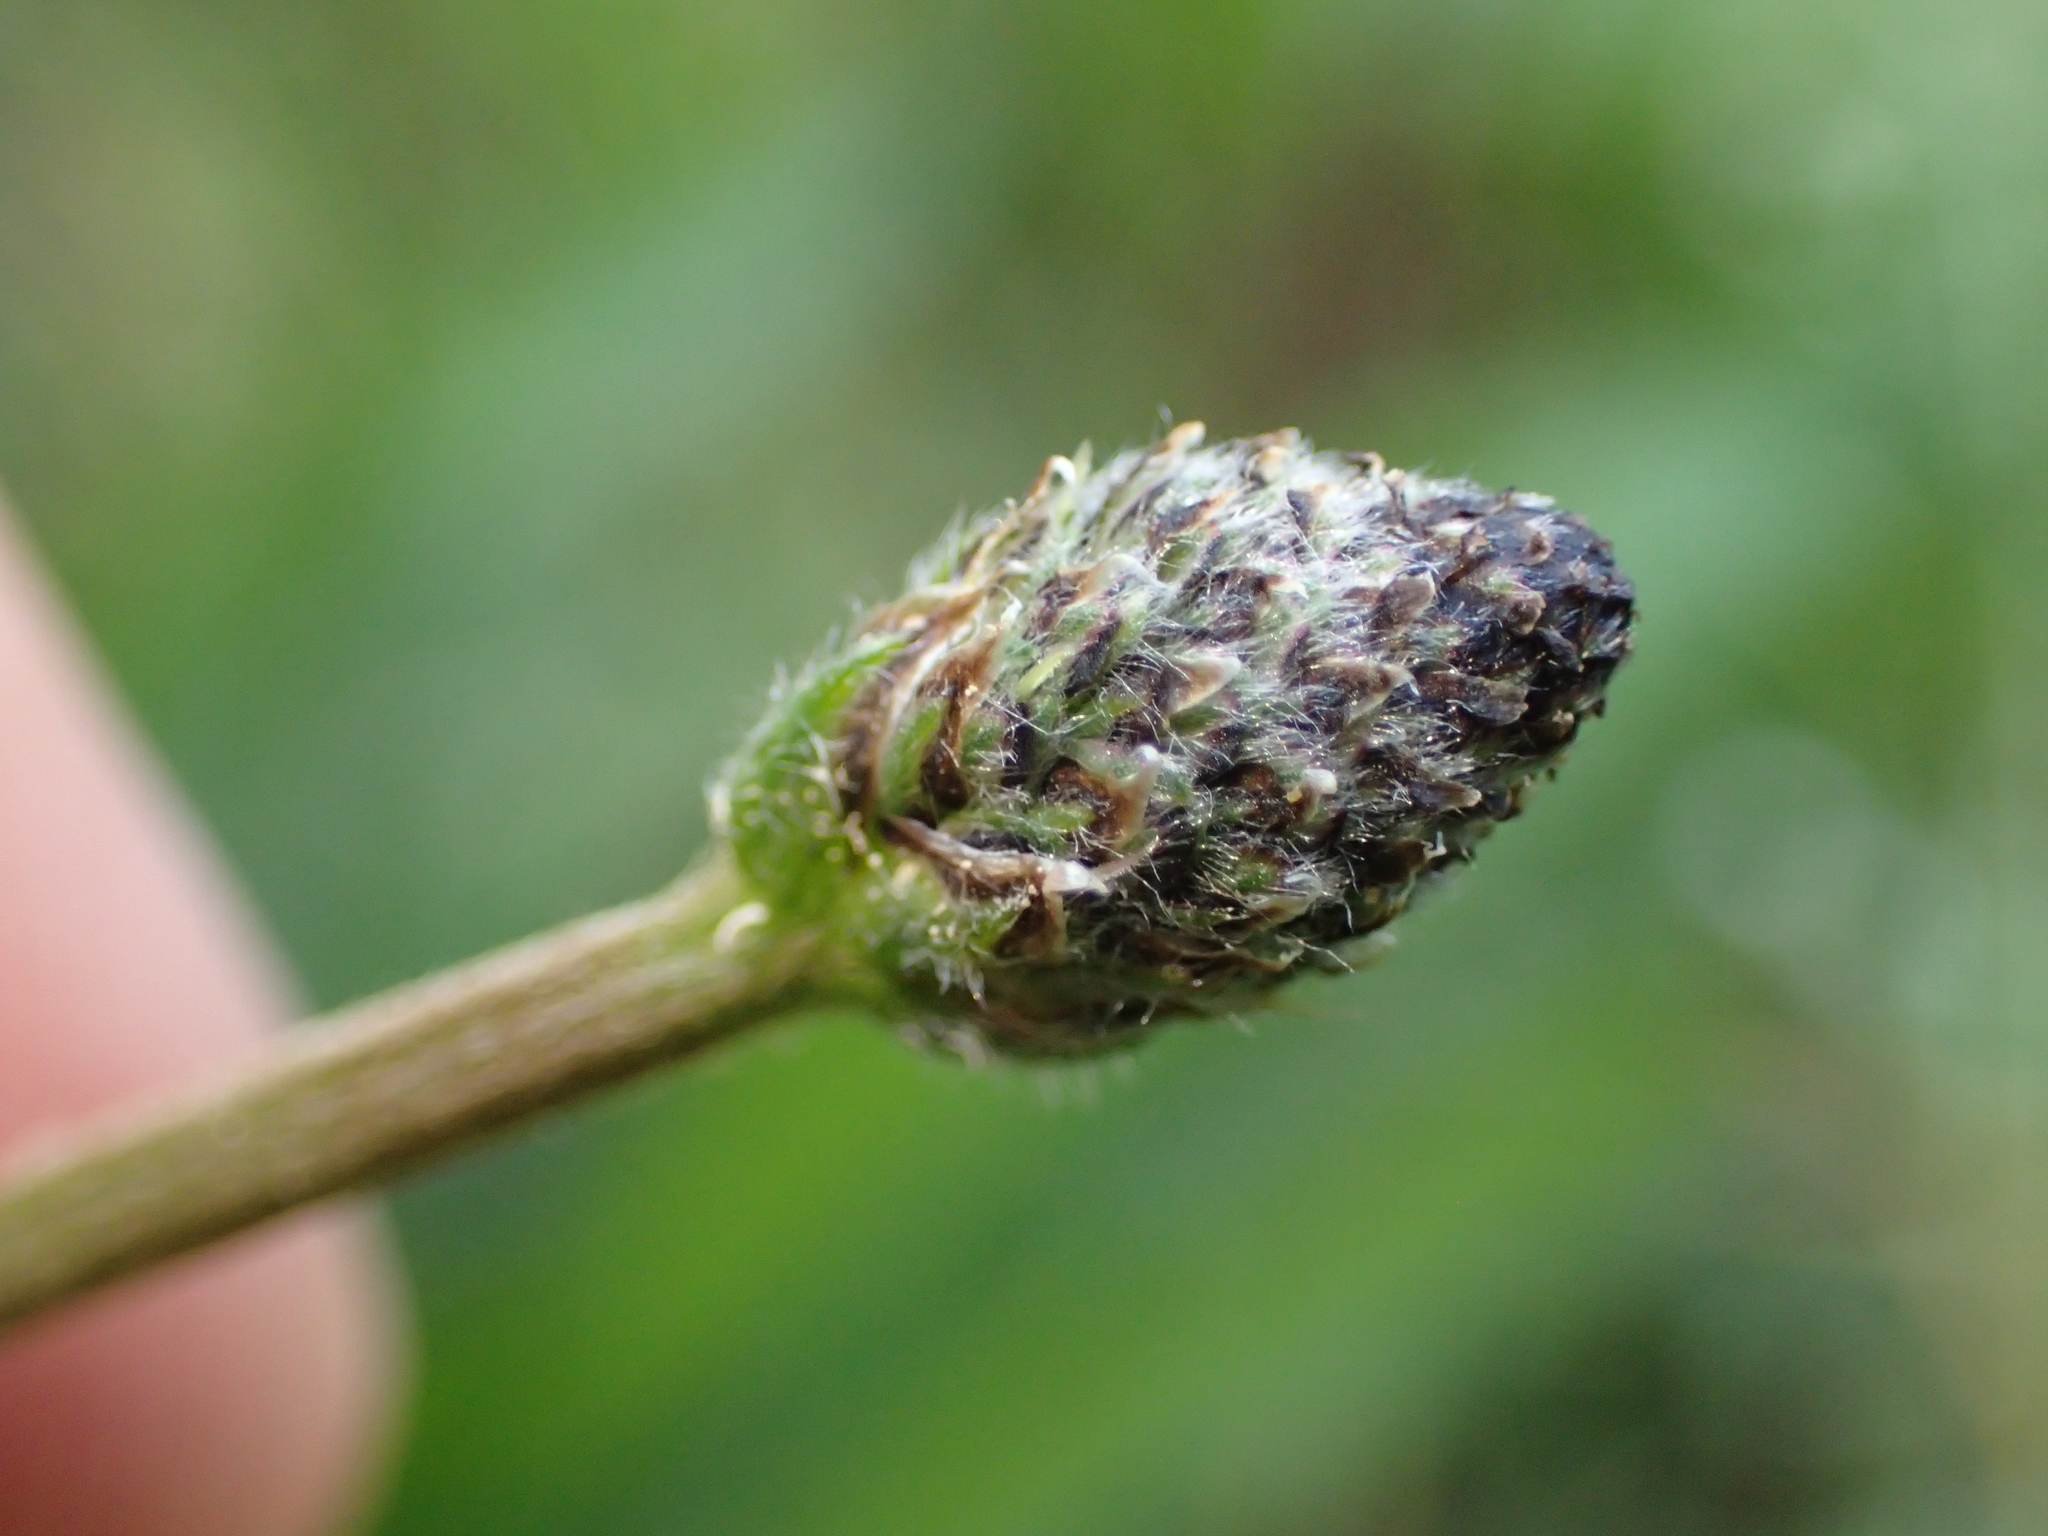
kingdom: Plantae
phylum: Tracheophyta
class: Magnoliopsida
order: Lamiales
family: Plantaginaceae
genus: Plantago
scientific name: Plantago lanceolata
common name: Ribwort plantain
